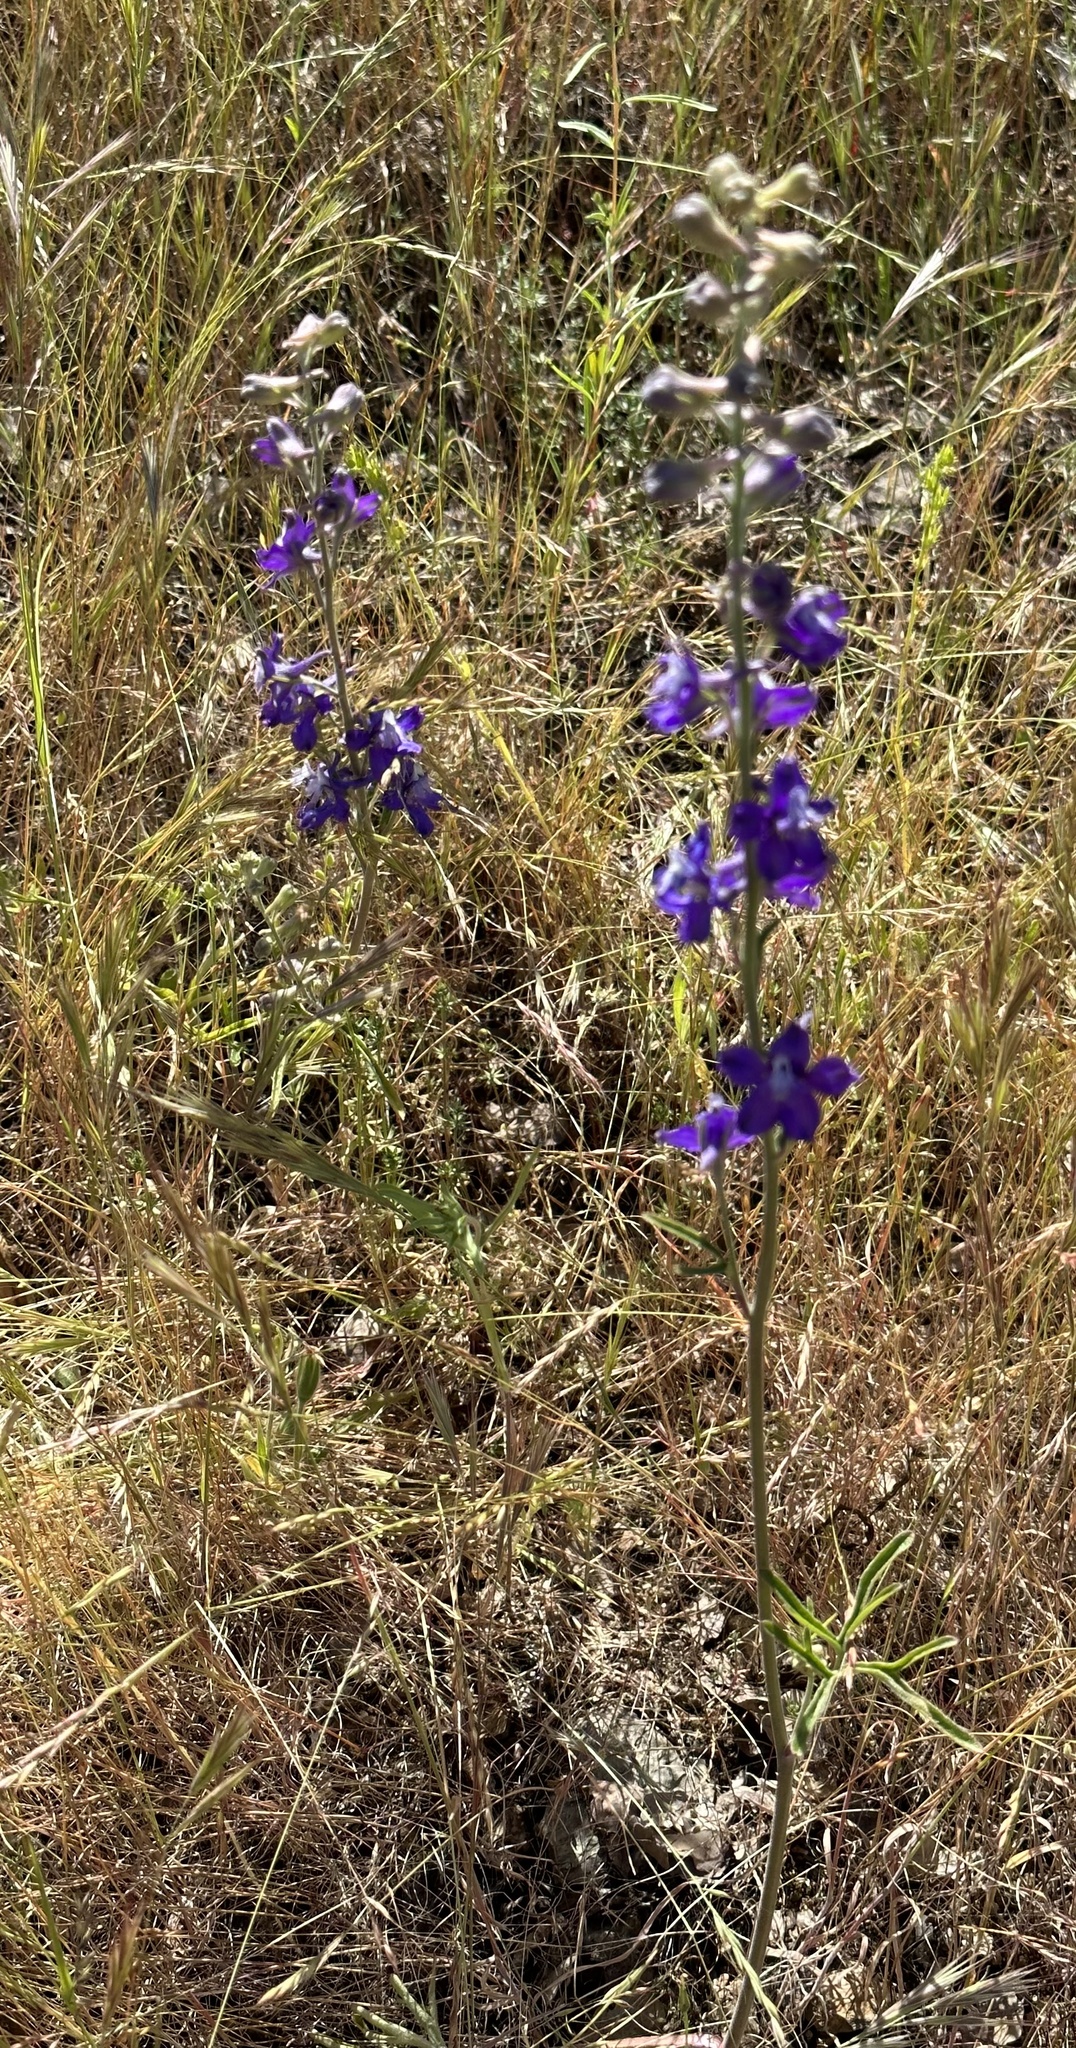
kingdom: Plantae
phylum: Tracheophyta
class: Magnoliopsida
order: Ranunculales
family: Ranunculaceae
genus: Delphinium
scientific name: Delphinium variegatum
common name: Royal larkspur
